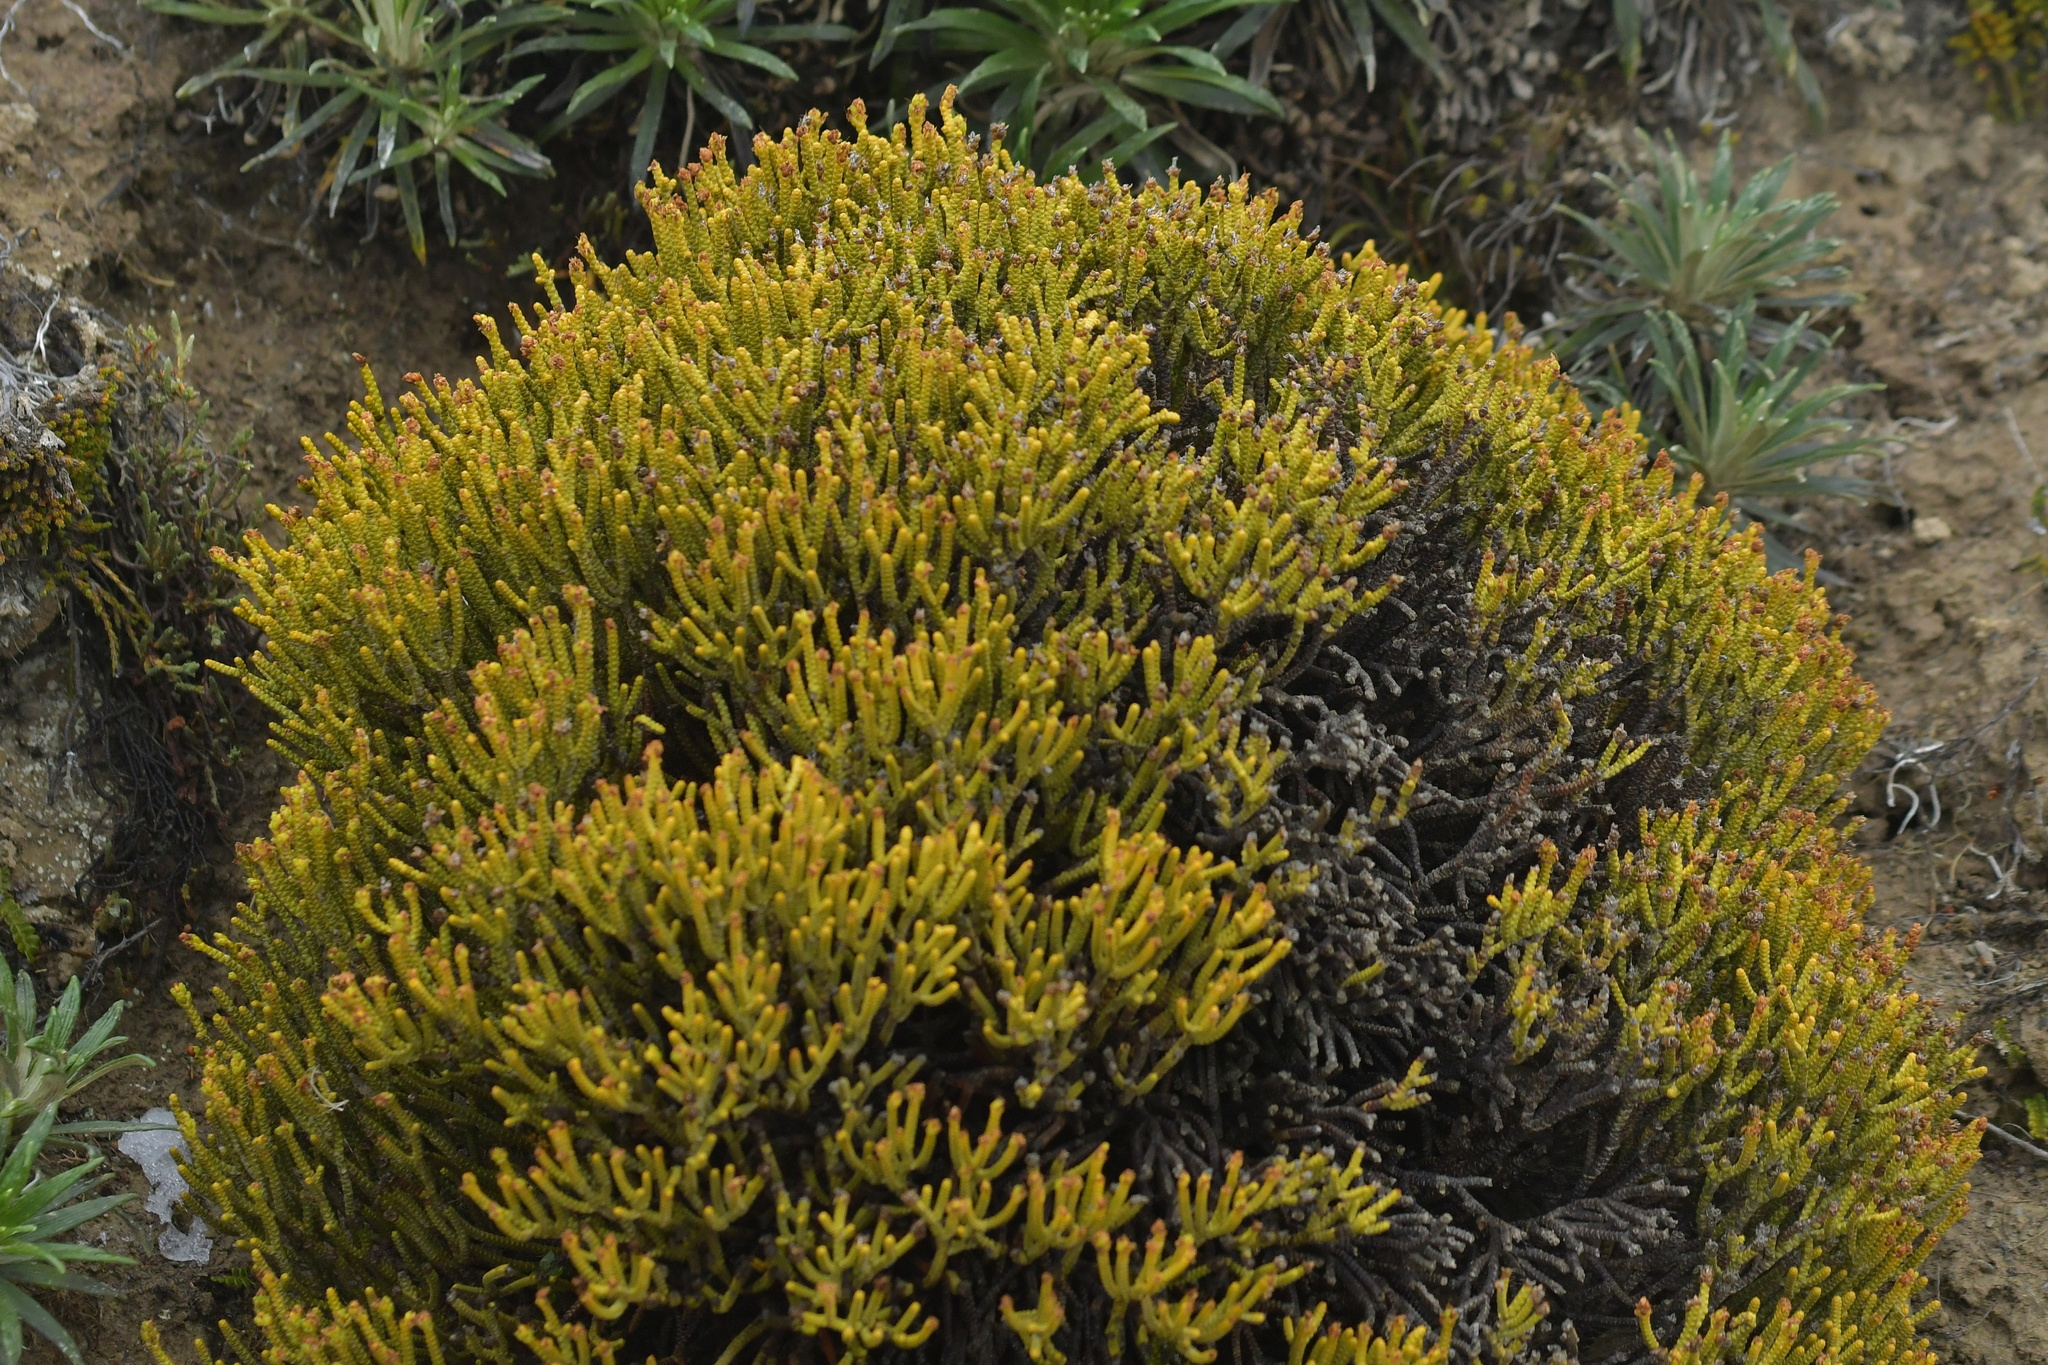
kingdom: Plantae
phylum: Tracheophyta
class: Magnoliopsida
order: Lamiales
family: Plantaginaceae
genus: Veronica
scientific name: Veronica poppelwellii
